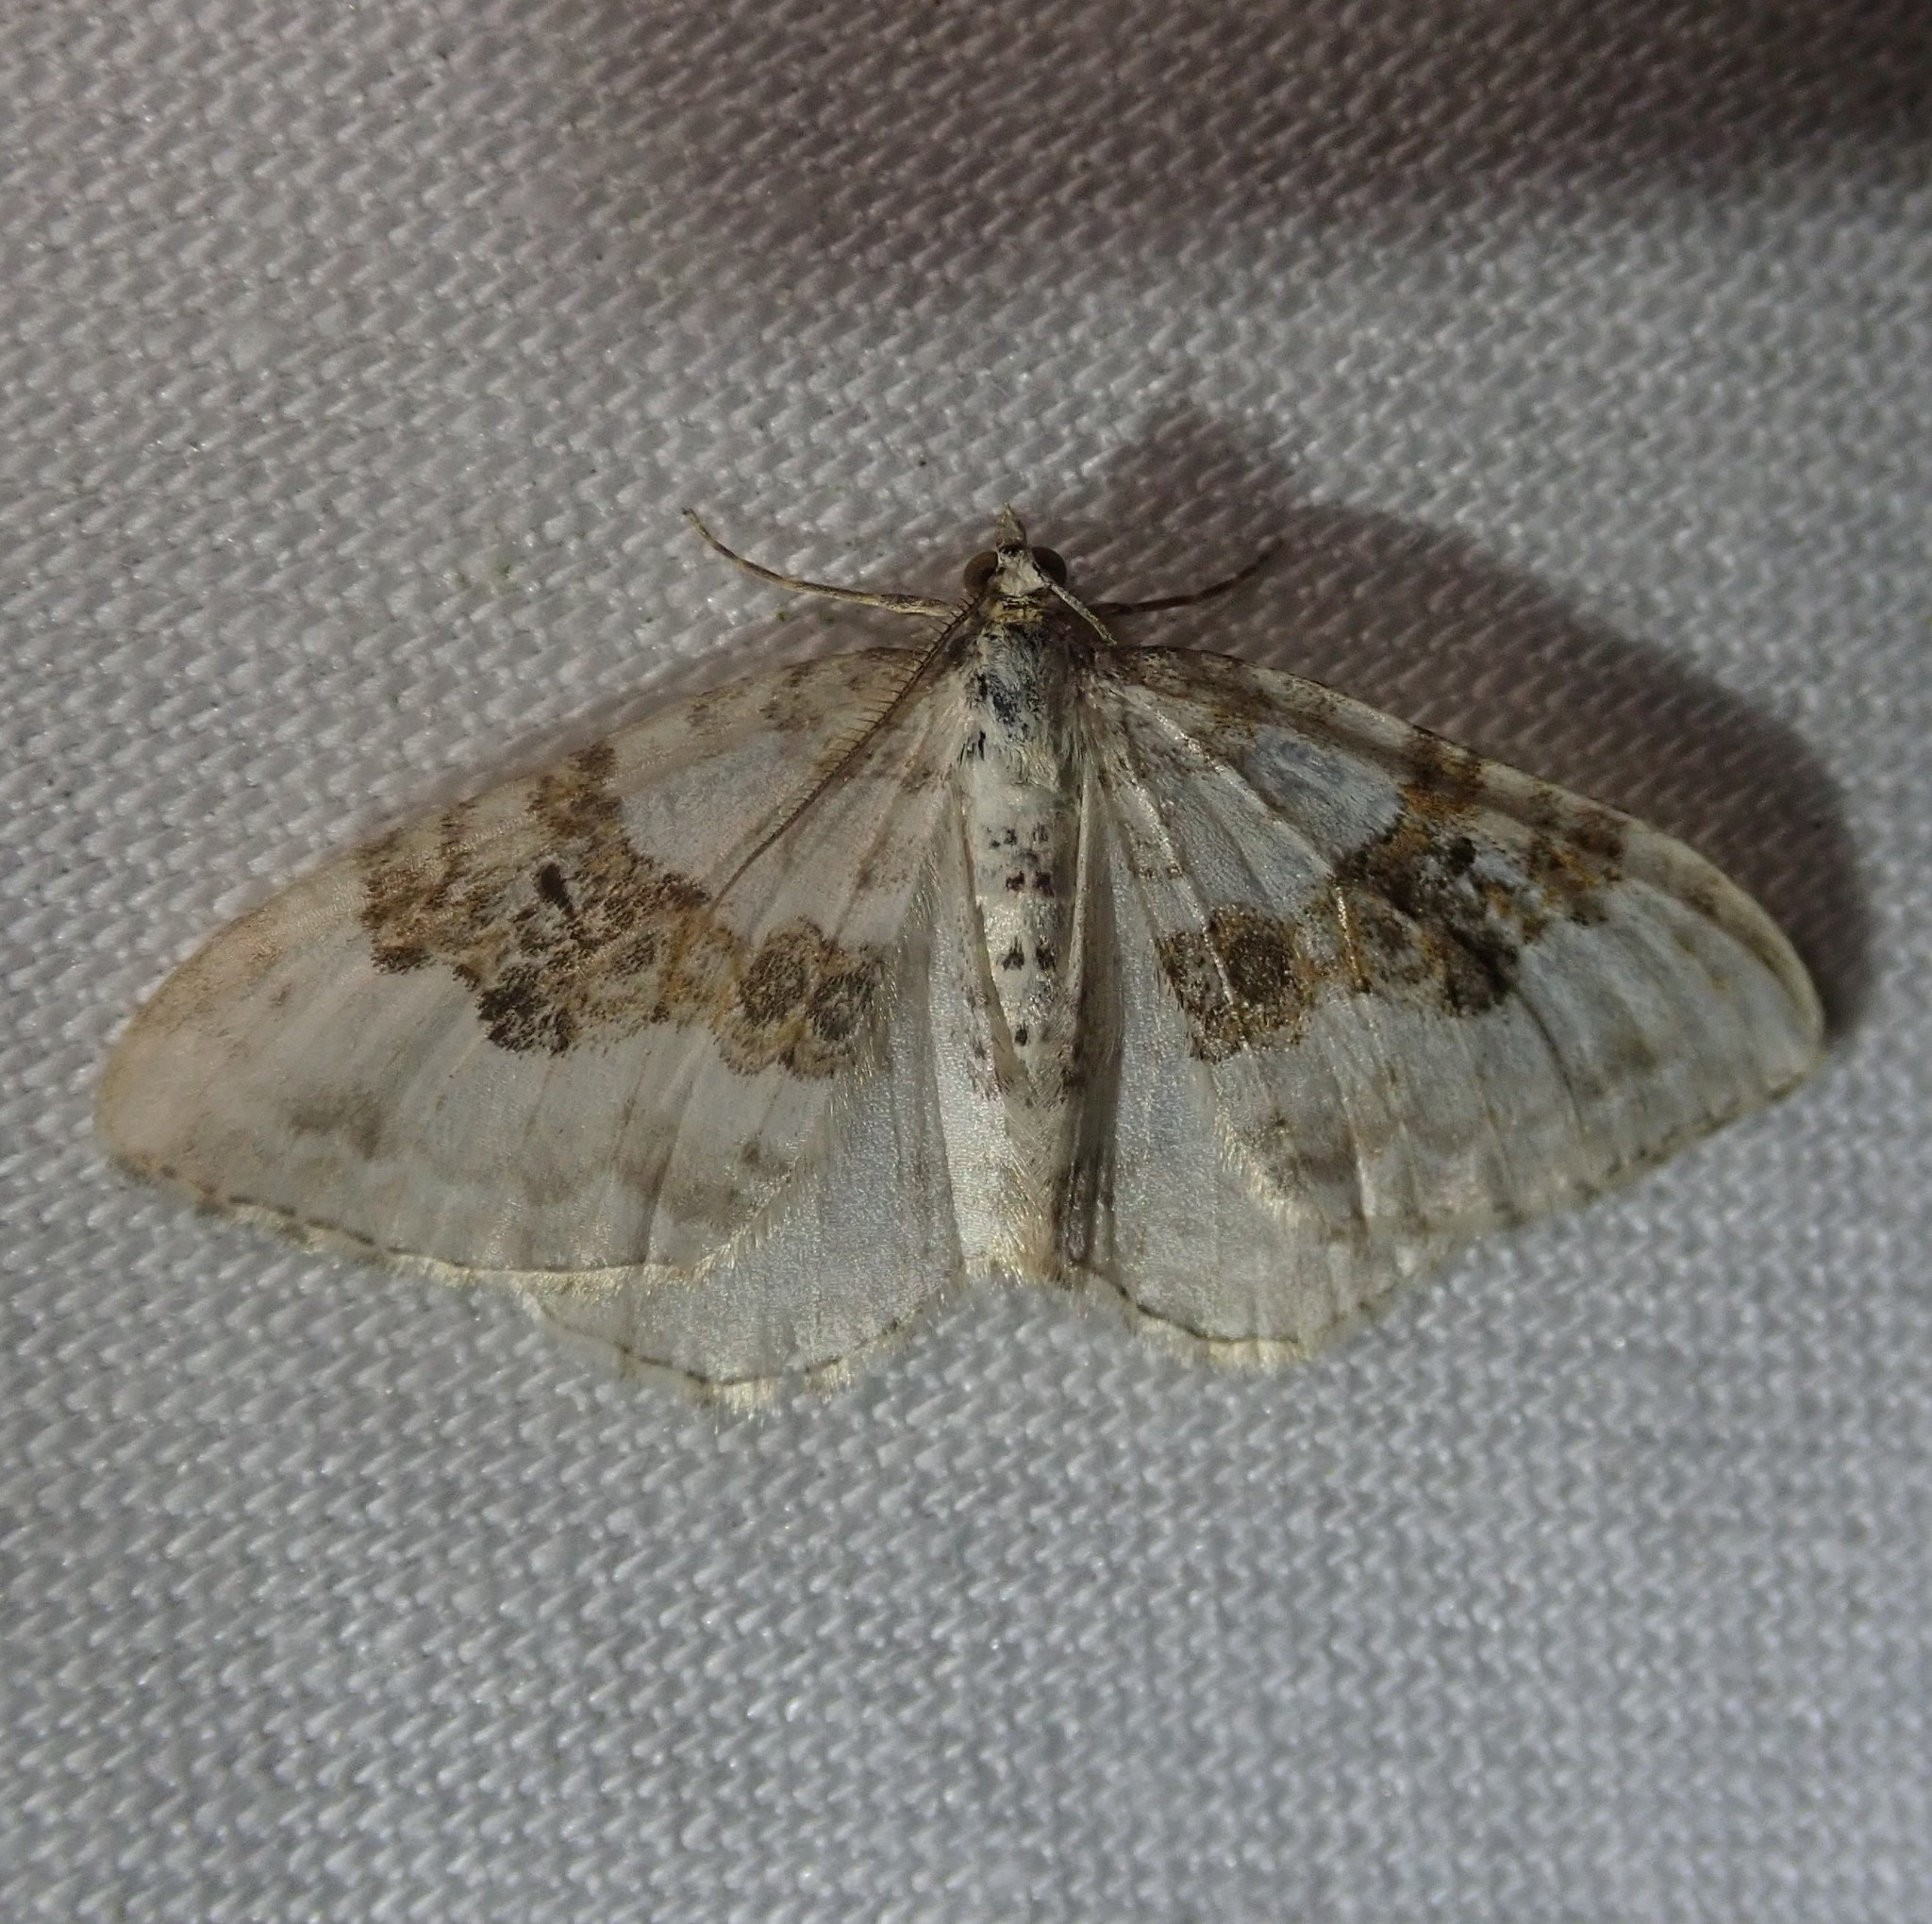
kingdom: Animalia
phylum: Arthropoda
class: Insecta
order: Lepidoptera
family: Geometridae
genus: Xanthorhoe
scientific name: Xanthorhoe montanata
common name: Silver-ground carpet
